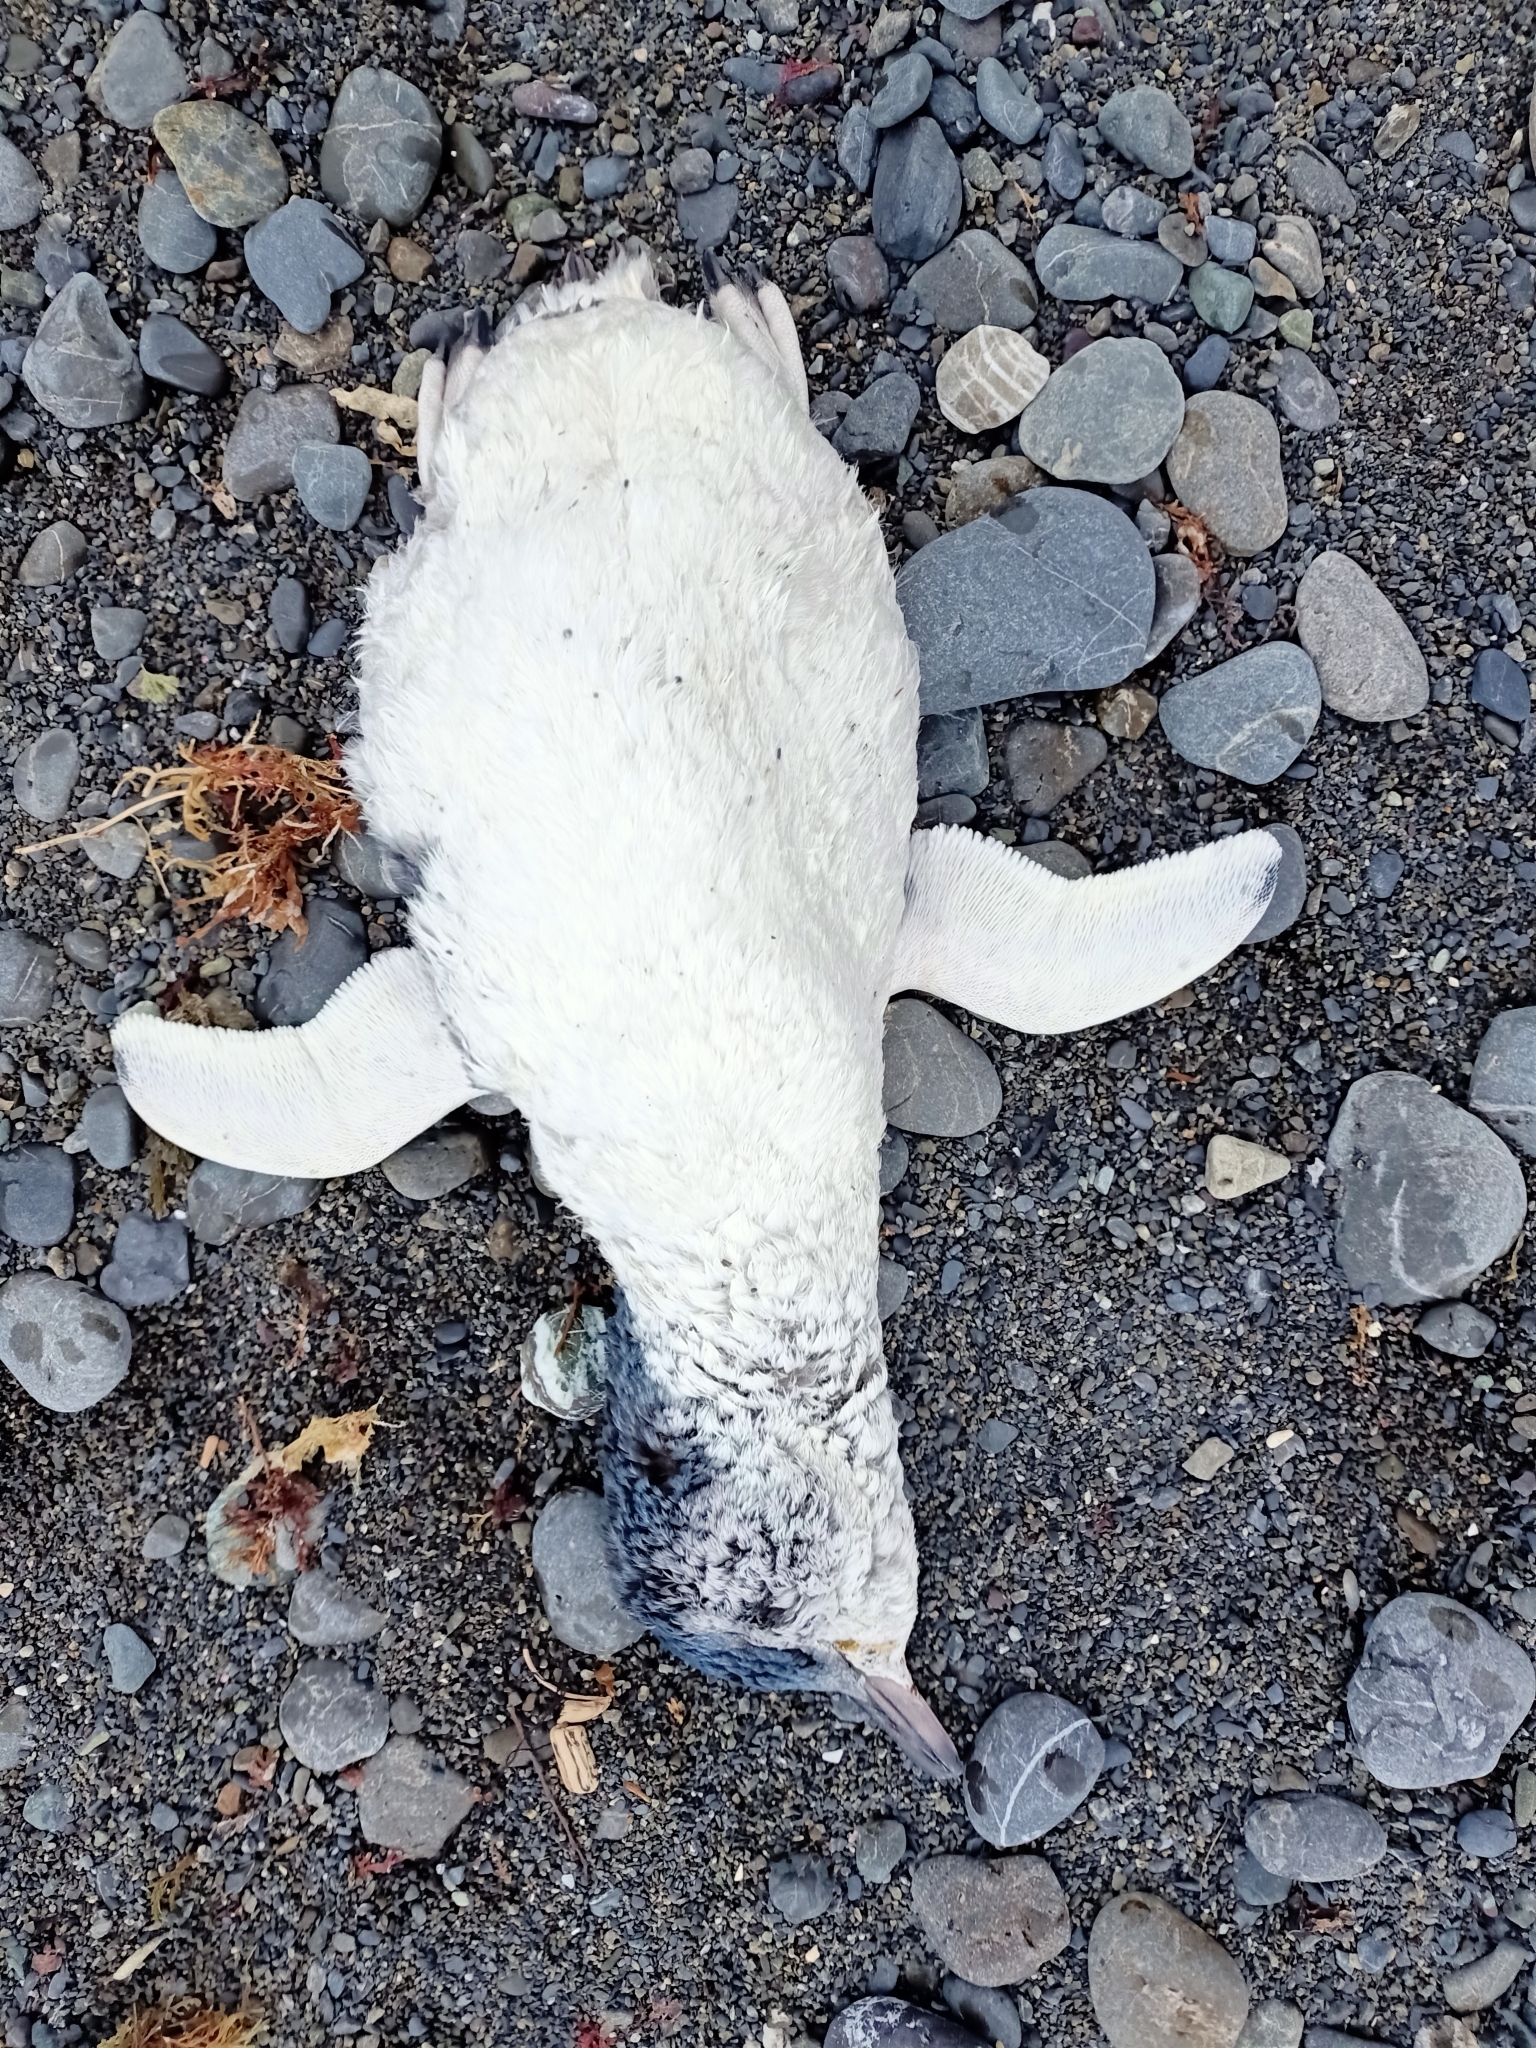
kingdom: Animalia
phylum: Chordata
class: Aves
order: Sphenisciformes
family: Spheniscidae
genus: Eudyptula
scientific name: Eudyptula minor
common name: Little penguin
